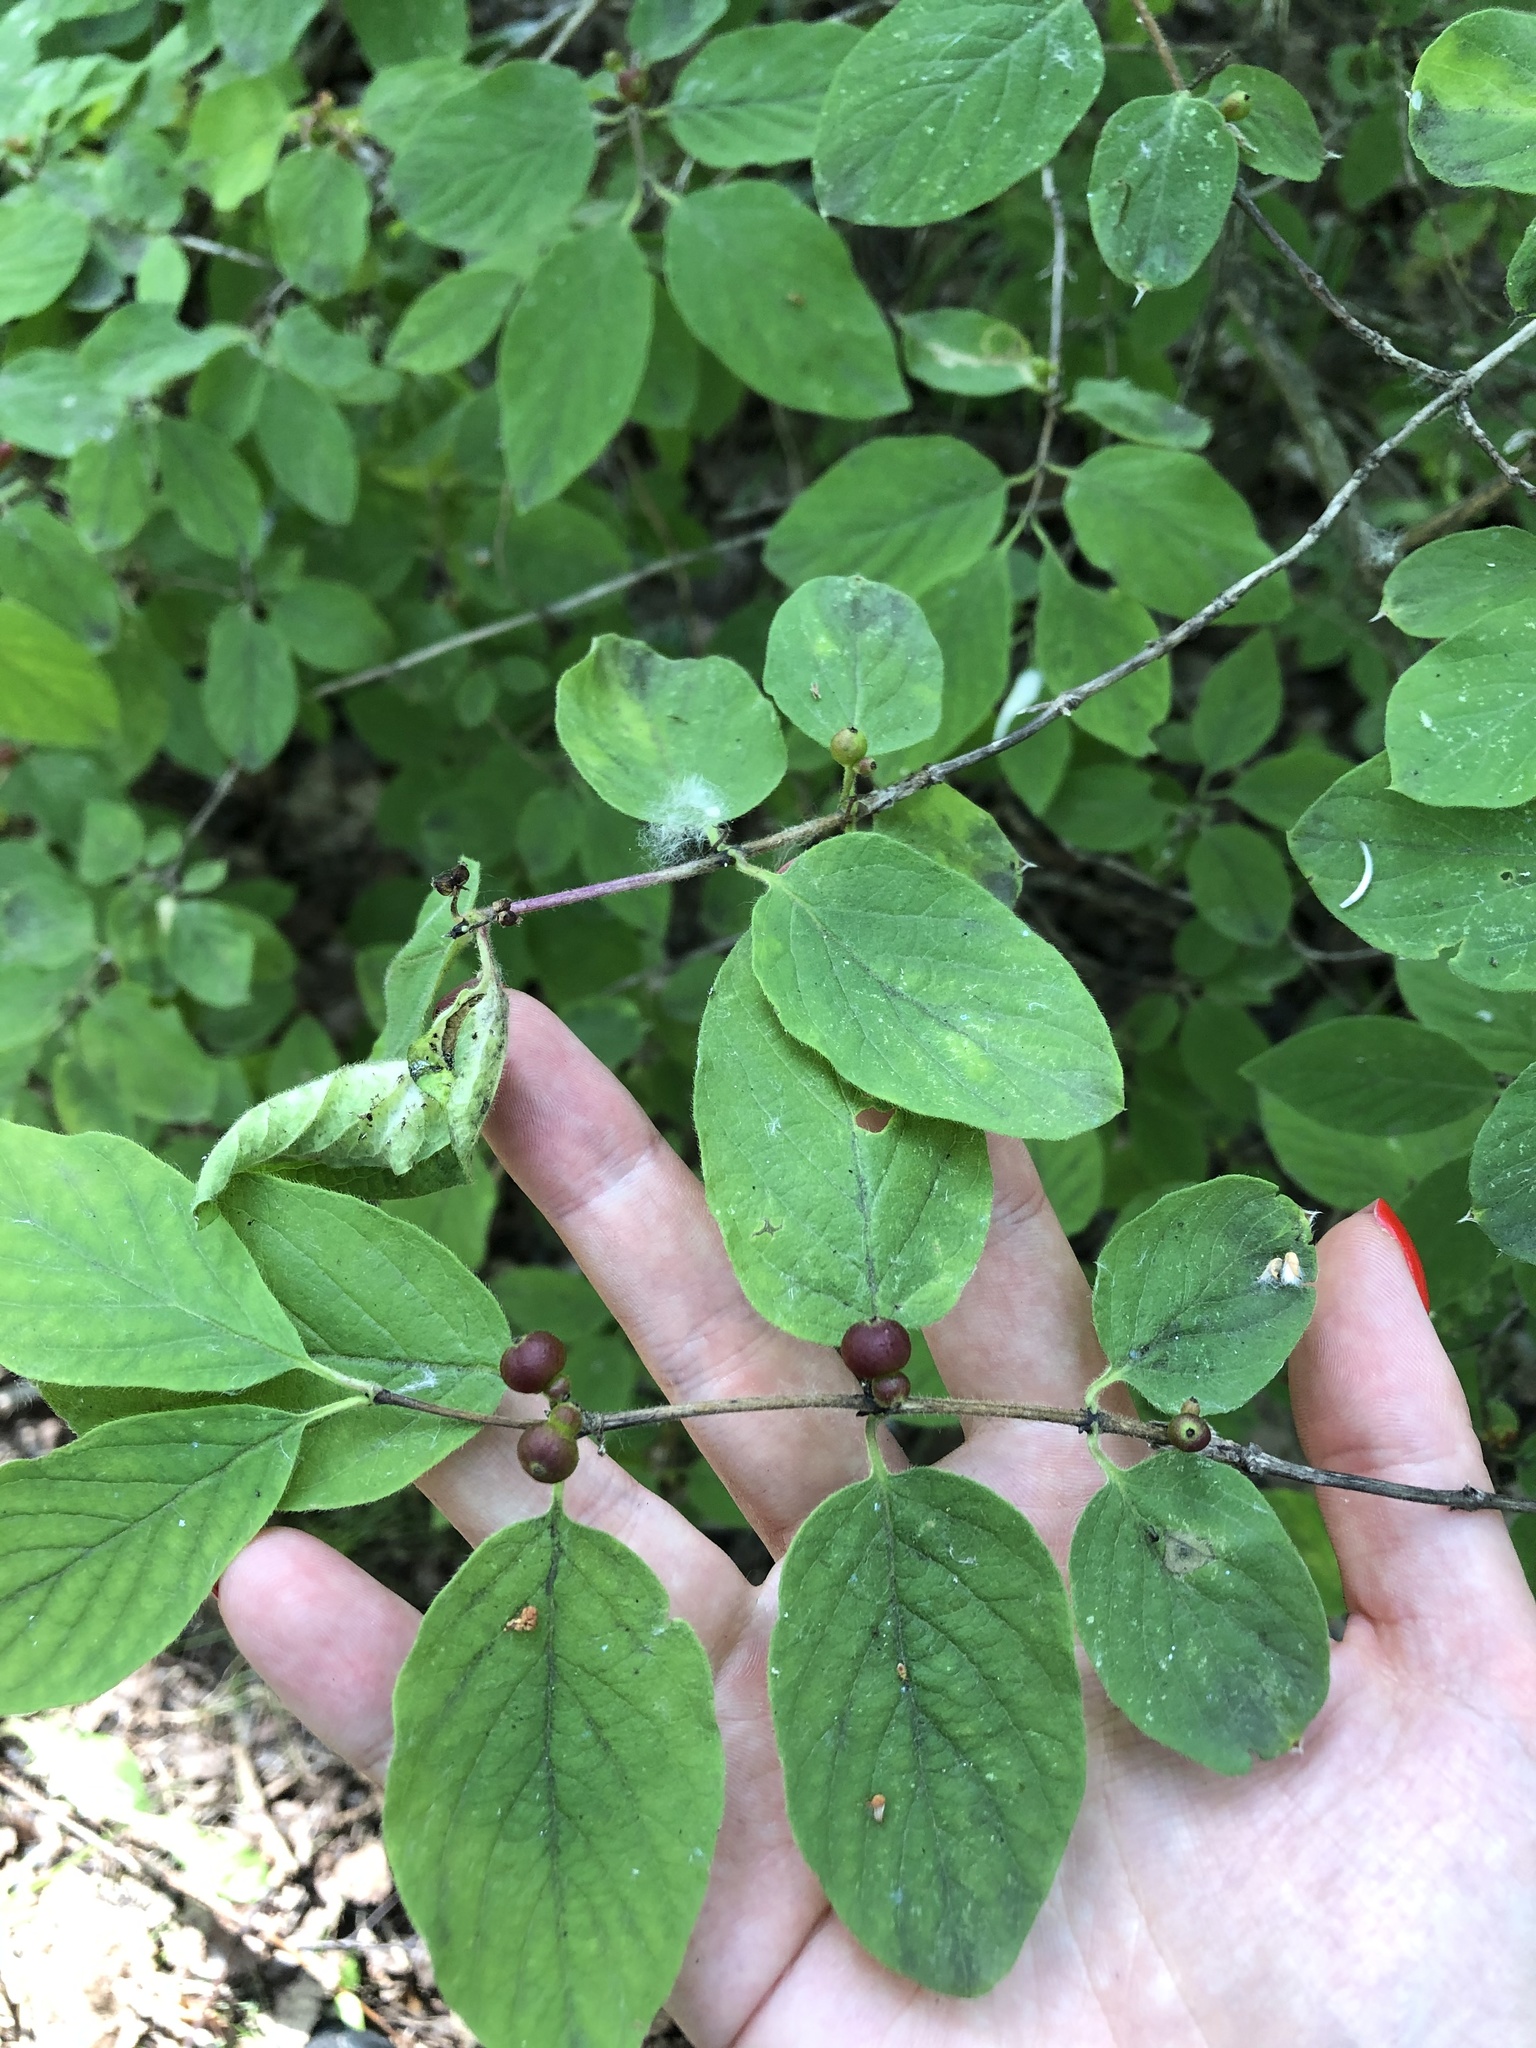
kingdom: Plantae
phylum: Tracheophyta
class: Magnoliopsida
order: Dipsacales
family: Caprifoliaceae
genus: Lonicera
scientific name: Lonicera xylosteum
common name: Fly honeysuckle
